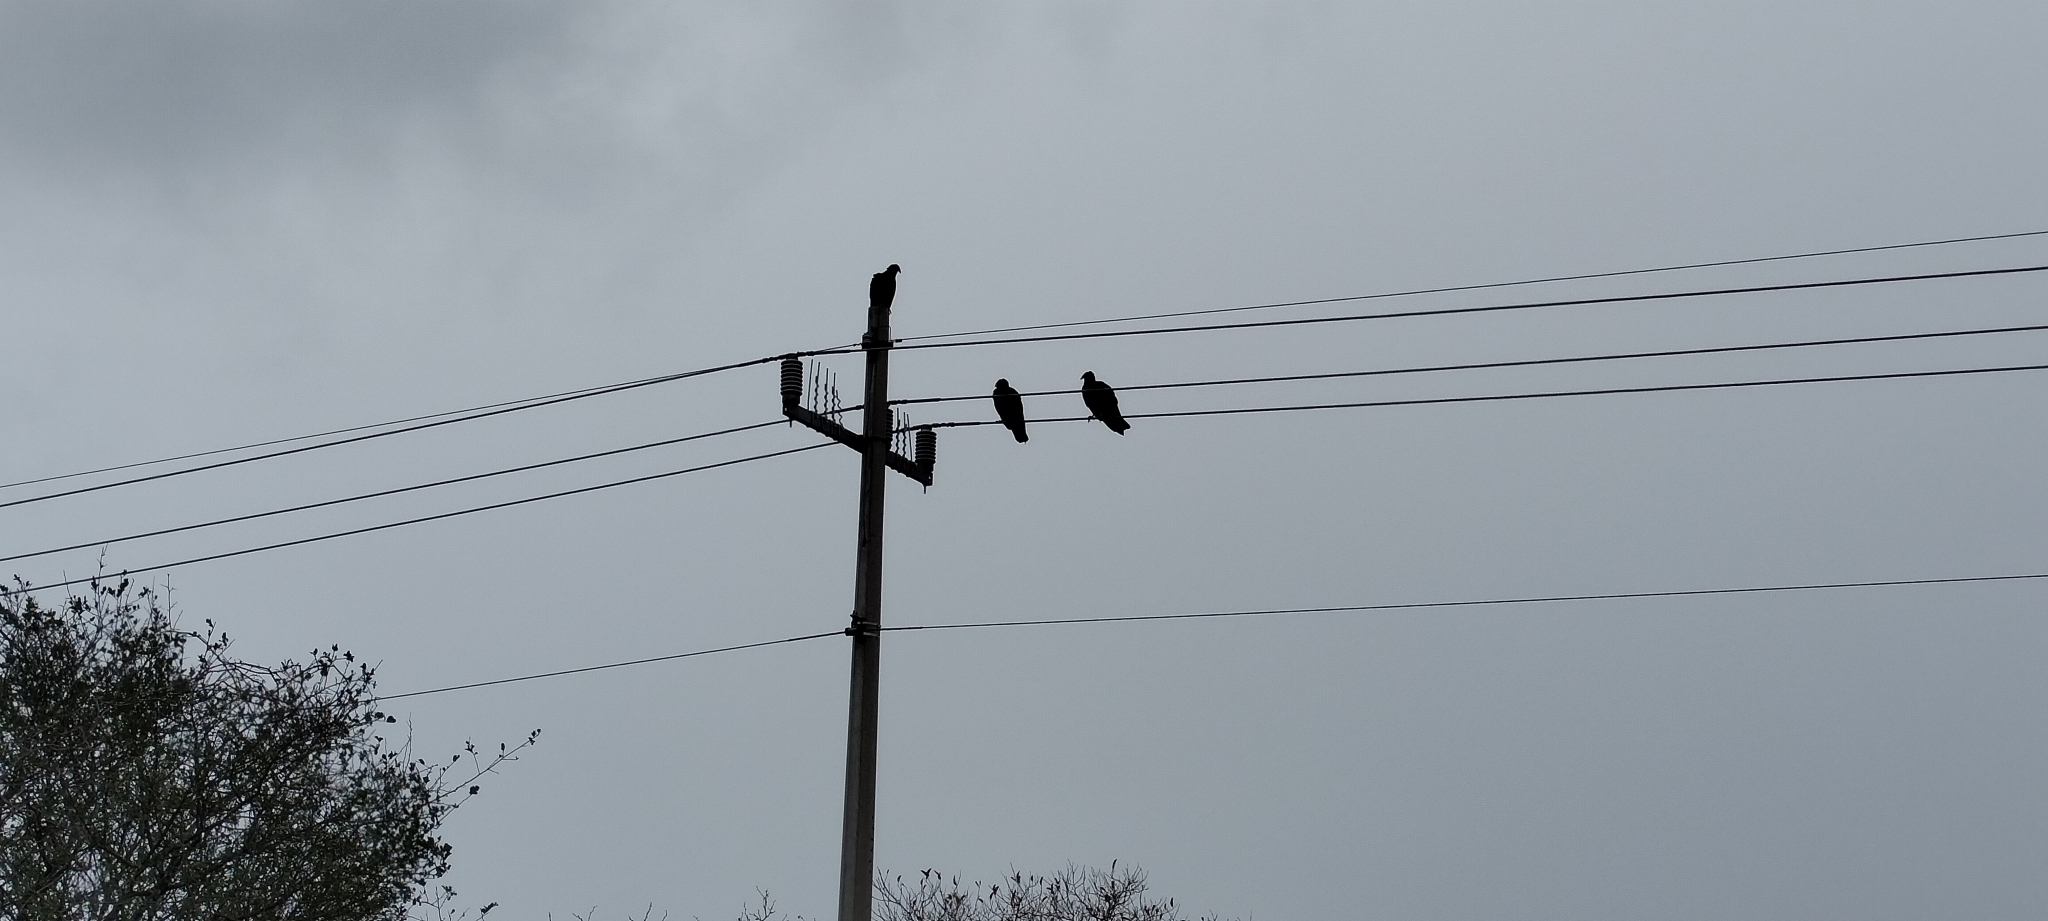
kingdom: Animalia
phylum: Chordata
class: Aves
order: Accipitriformes
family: Cathartidae
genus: Cathartes
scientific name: Cathartes aura
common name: Turkey vulture
